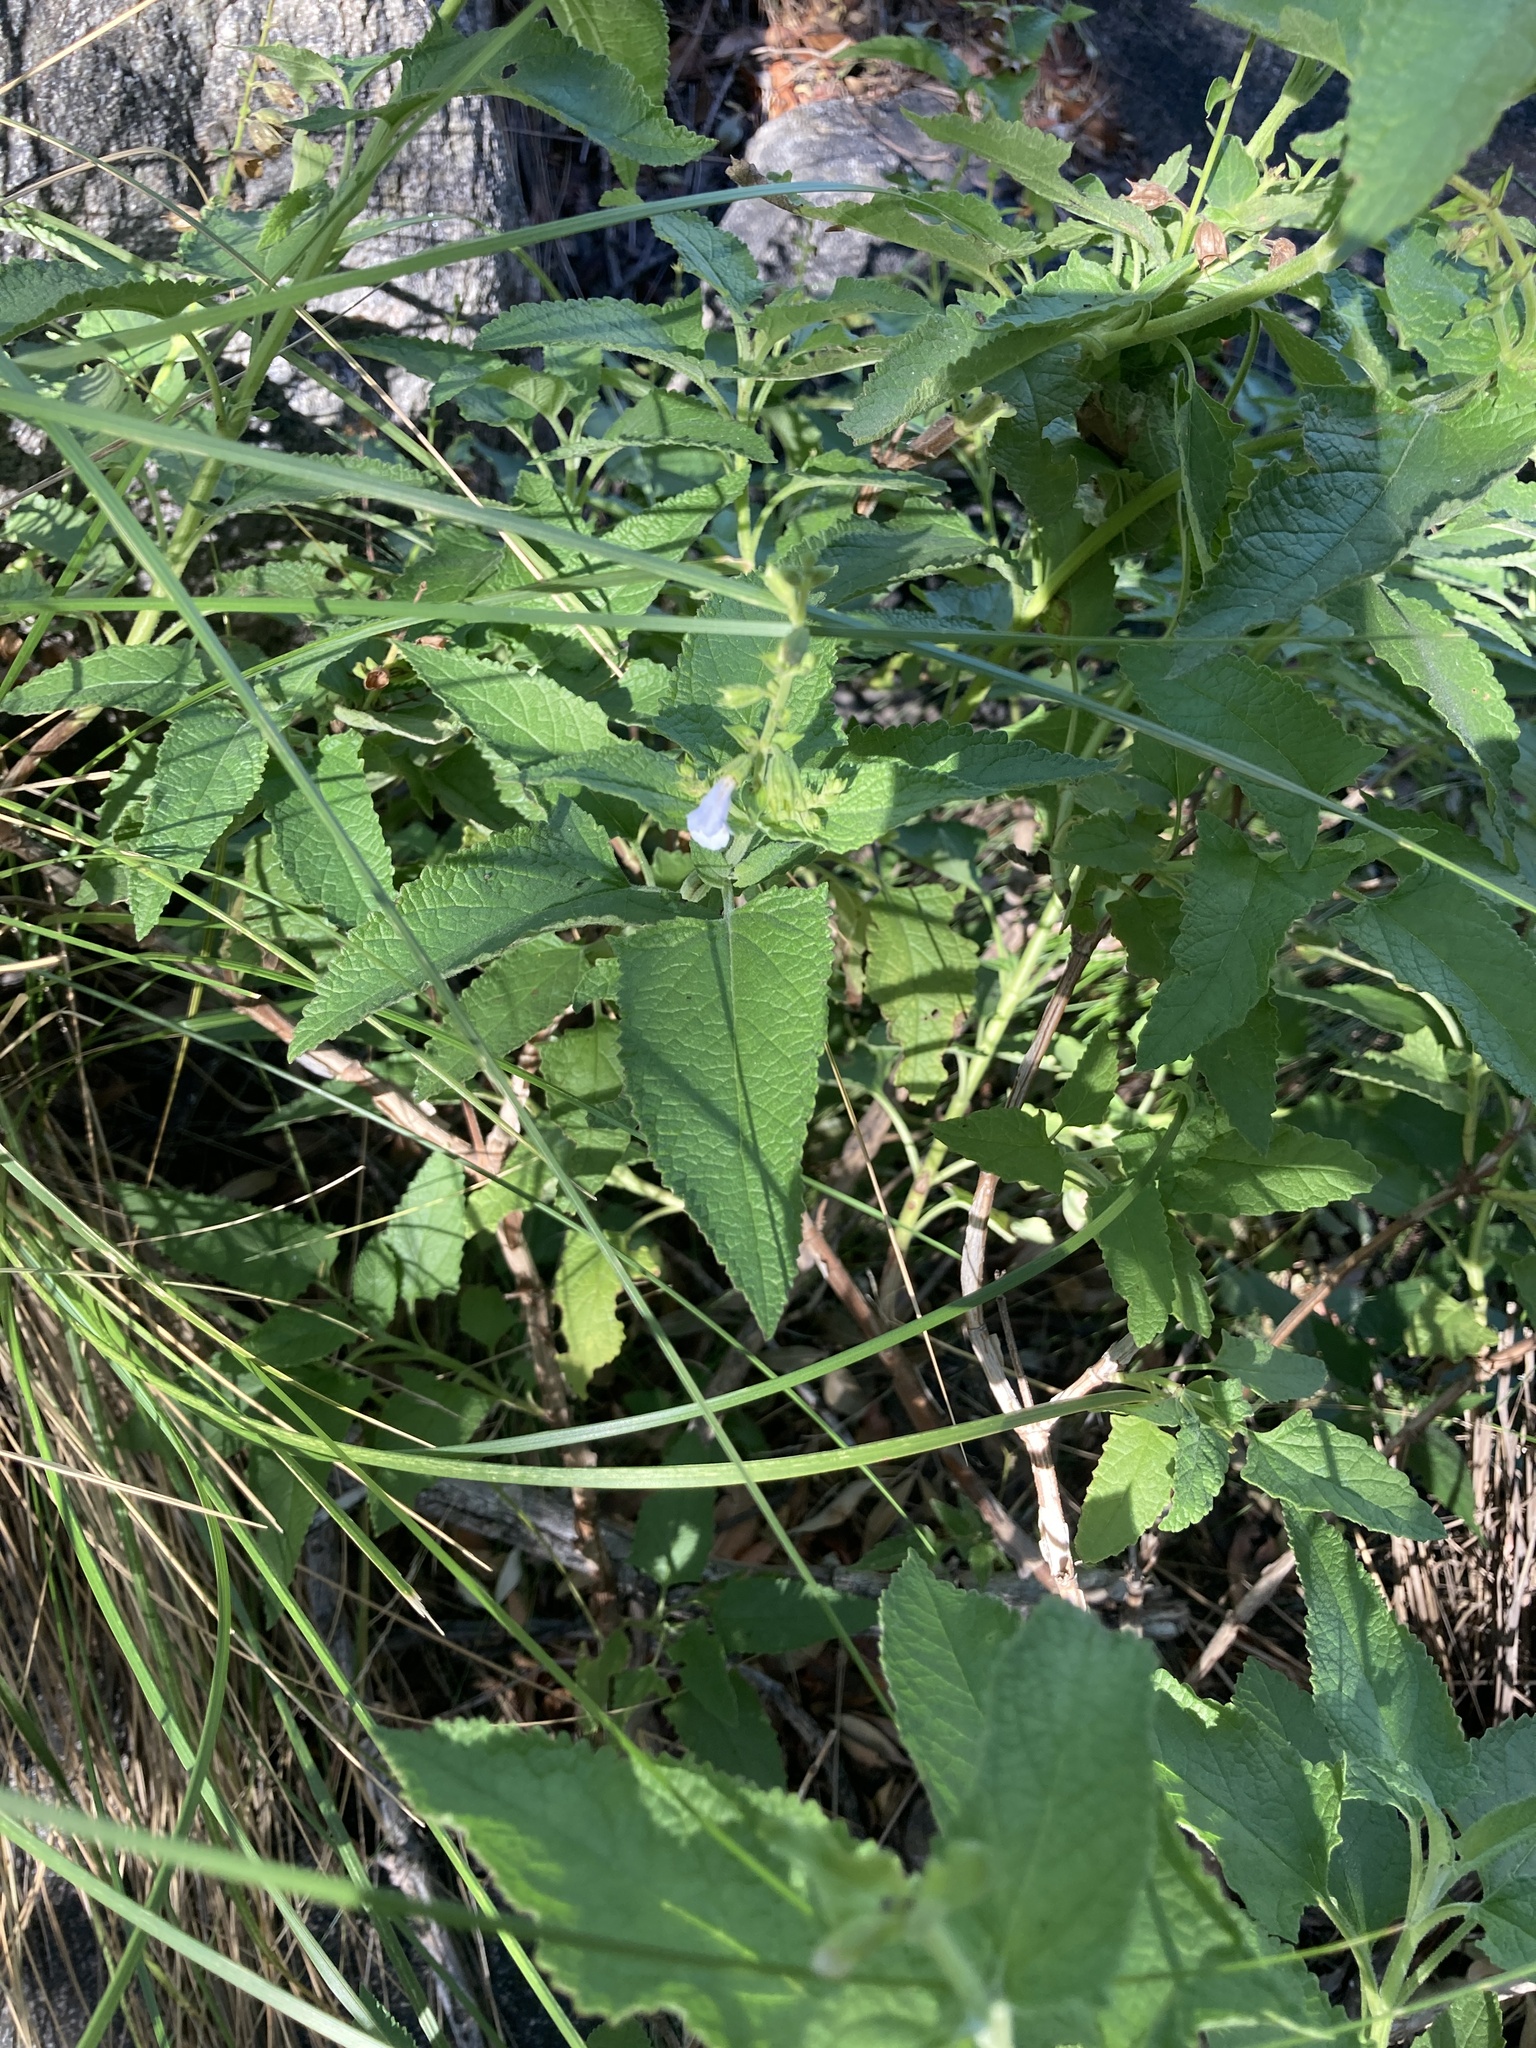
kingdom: Plantae
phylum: Tracheophyta
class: Magnoliopsida
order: Lamiales
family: Lamiaceae
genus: Lepechinia
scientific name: Lepechinia floribunda
